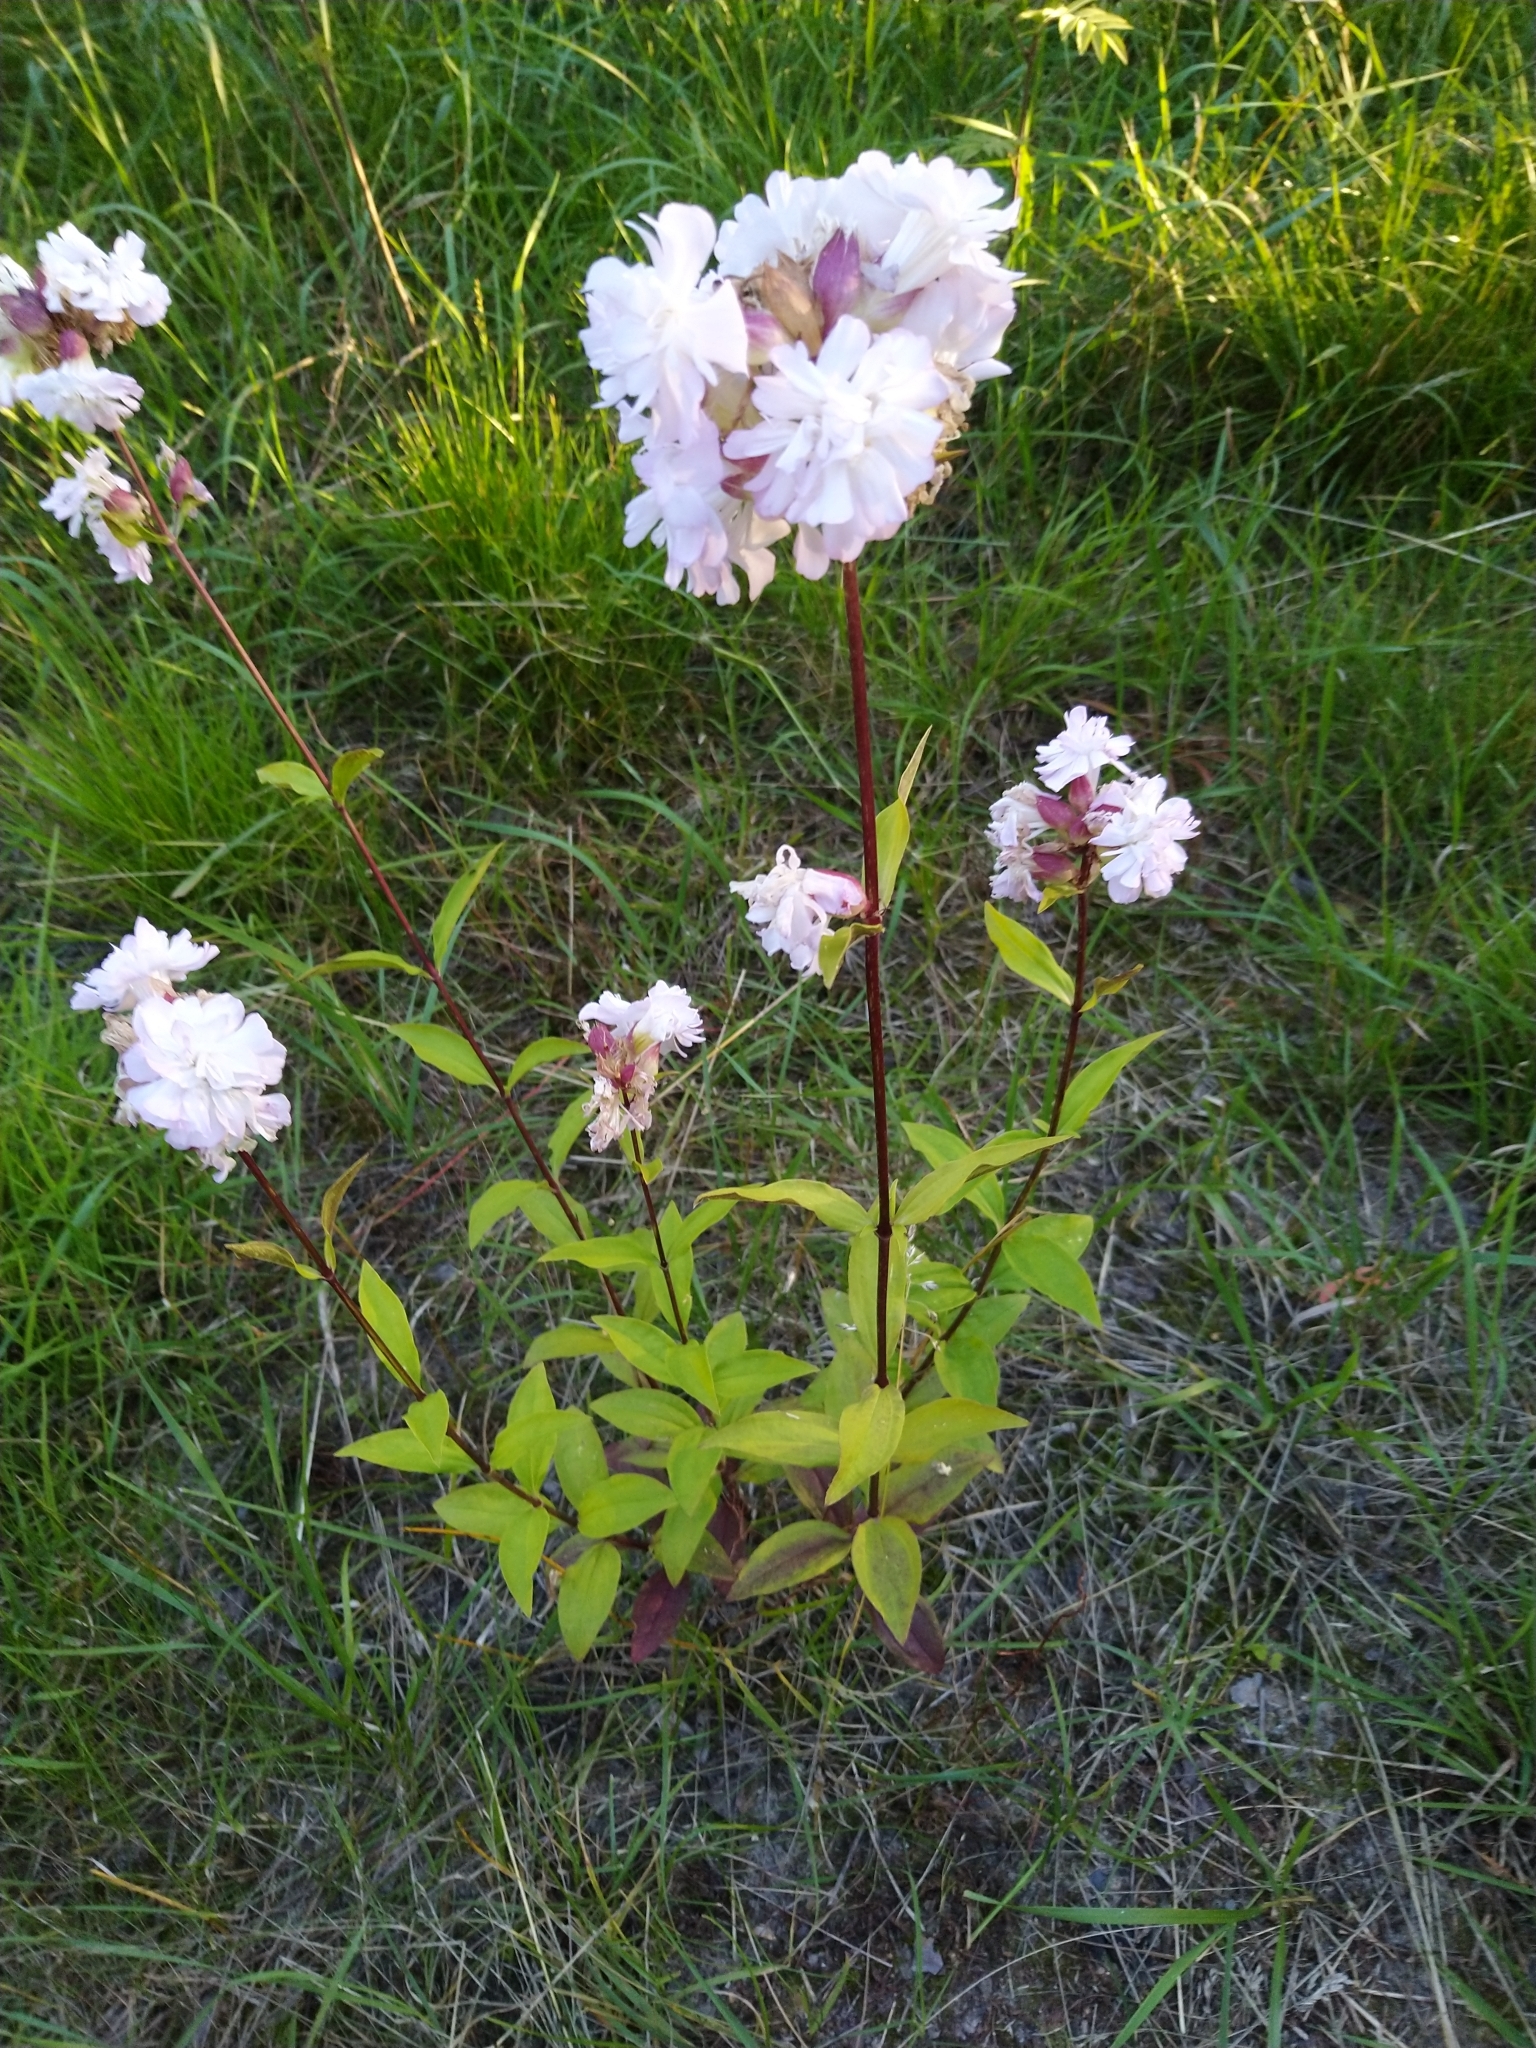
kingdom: Plantae
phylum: Tracheophyta
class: Magnoliopsida
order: Caryophyllales
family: Caryophyllaceae
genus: Saponaria
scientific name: Saponaria officinalis
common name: Soapwort
